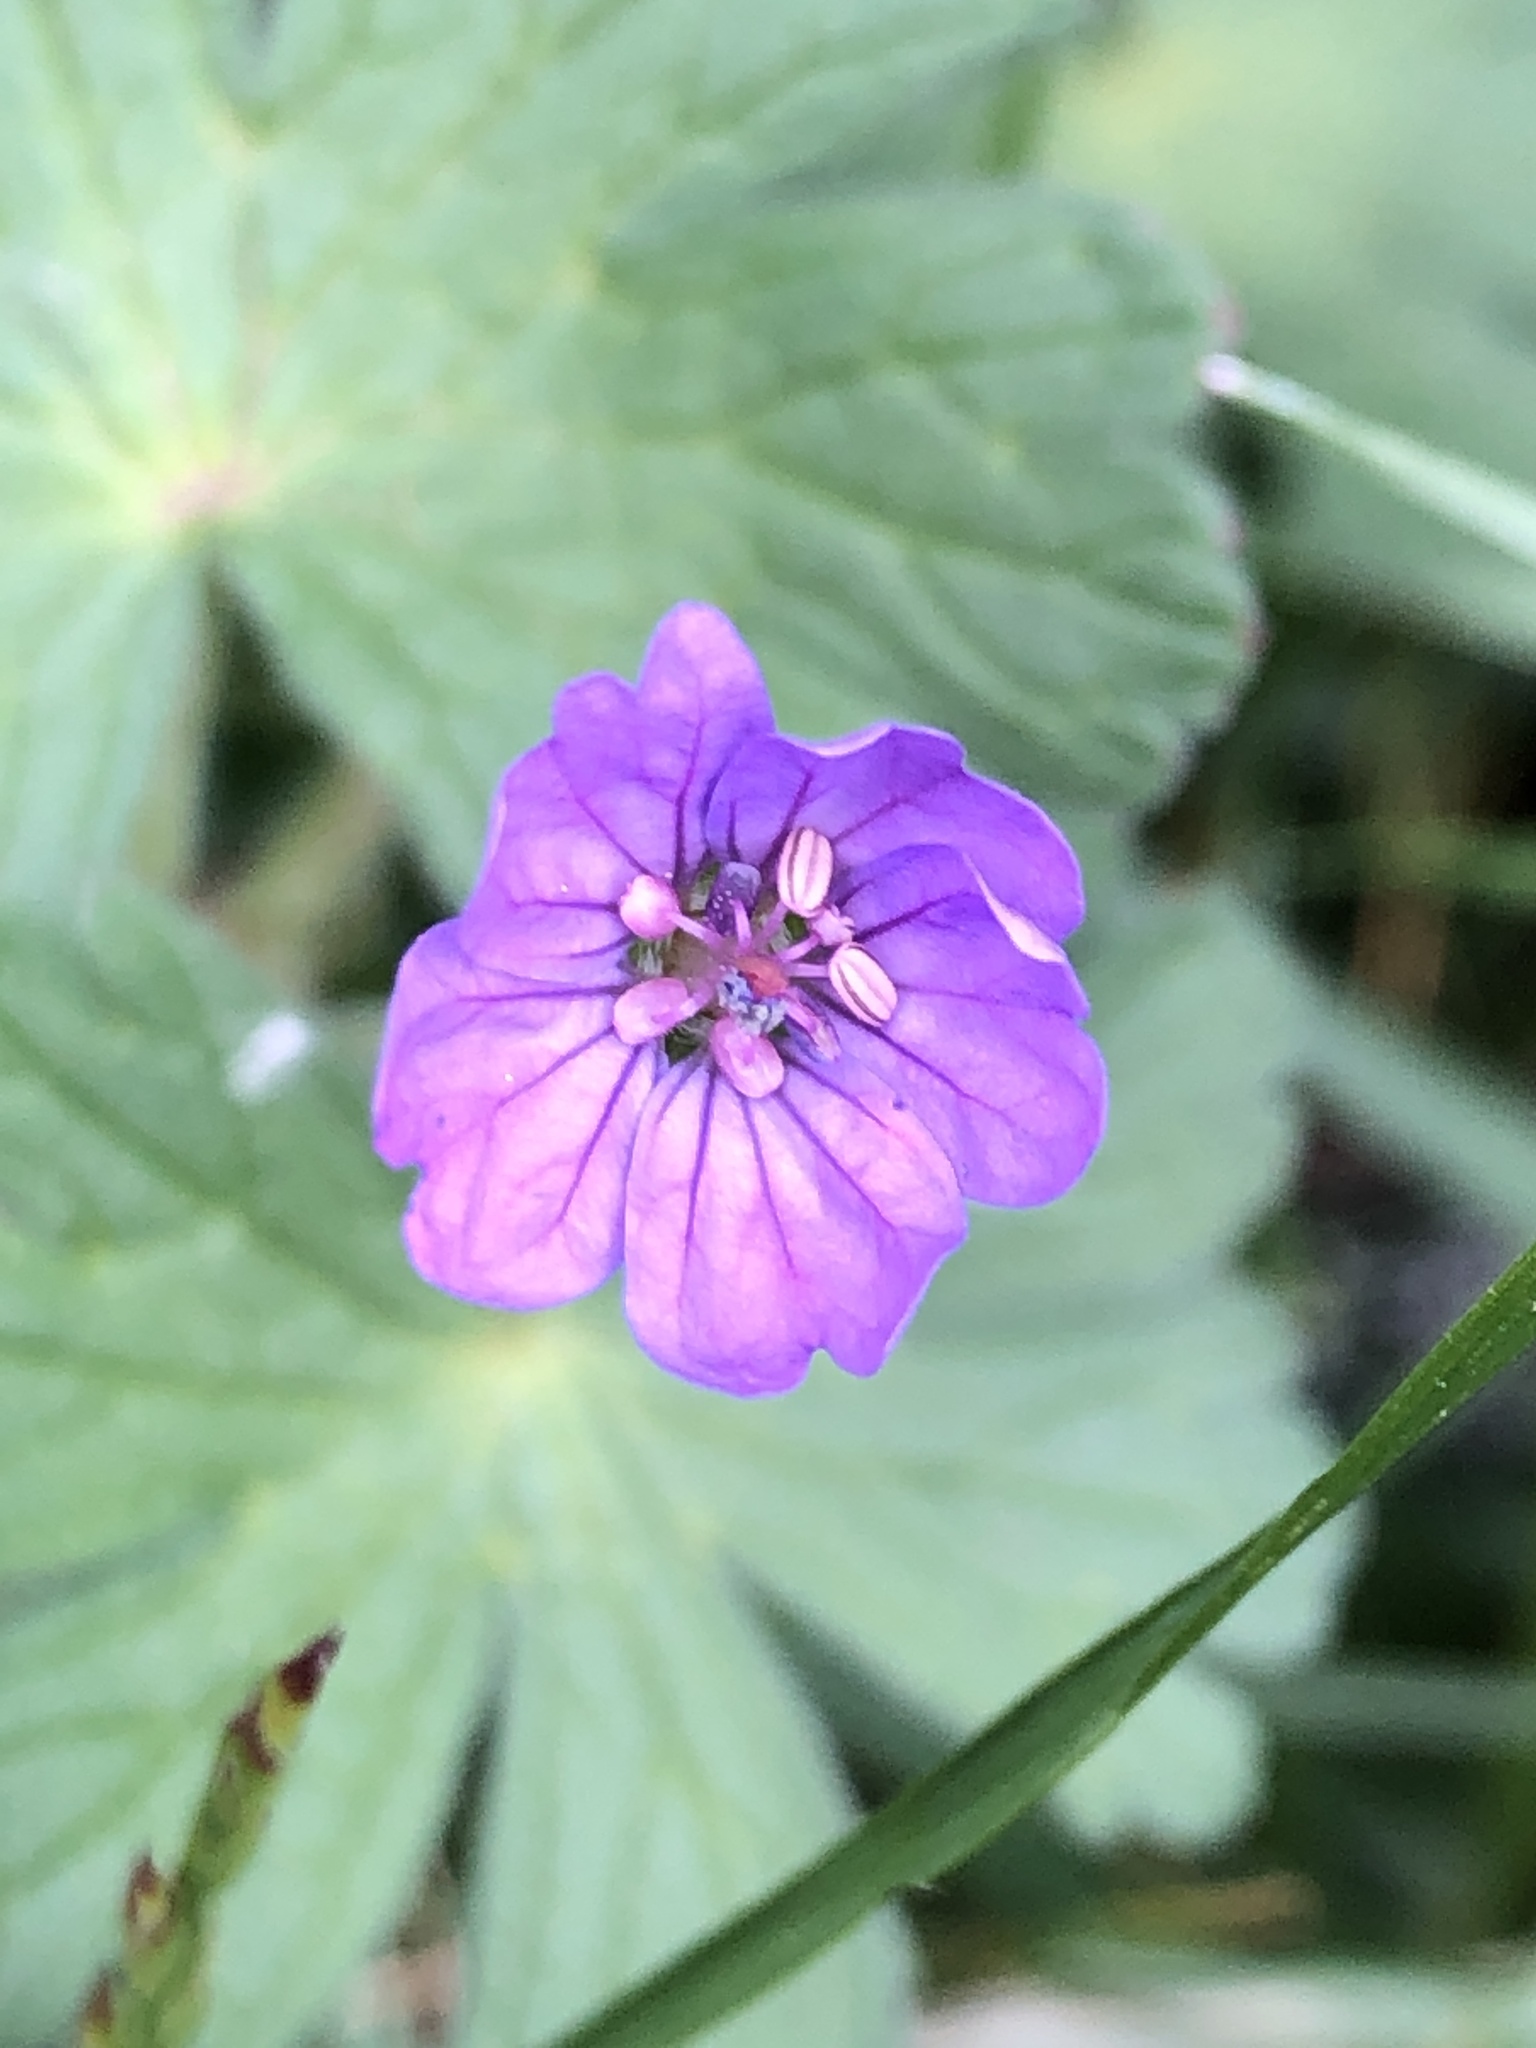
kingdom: Plantae
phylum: Tracheophyta
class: Magnoliopsida
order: Geraniales
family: Geraniaceae
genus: Geranium
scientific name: Geranium molle
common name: Dove's-foot crane's-bill
